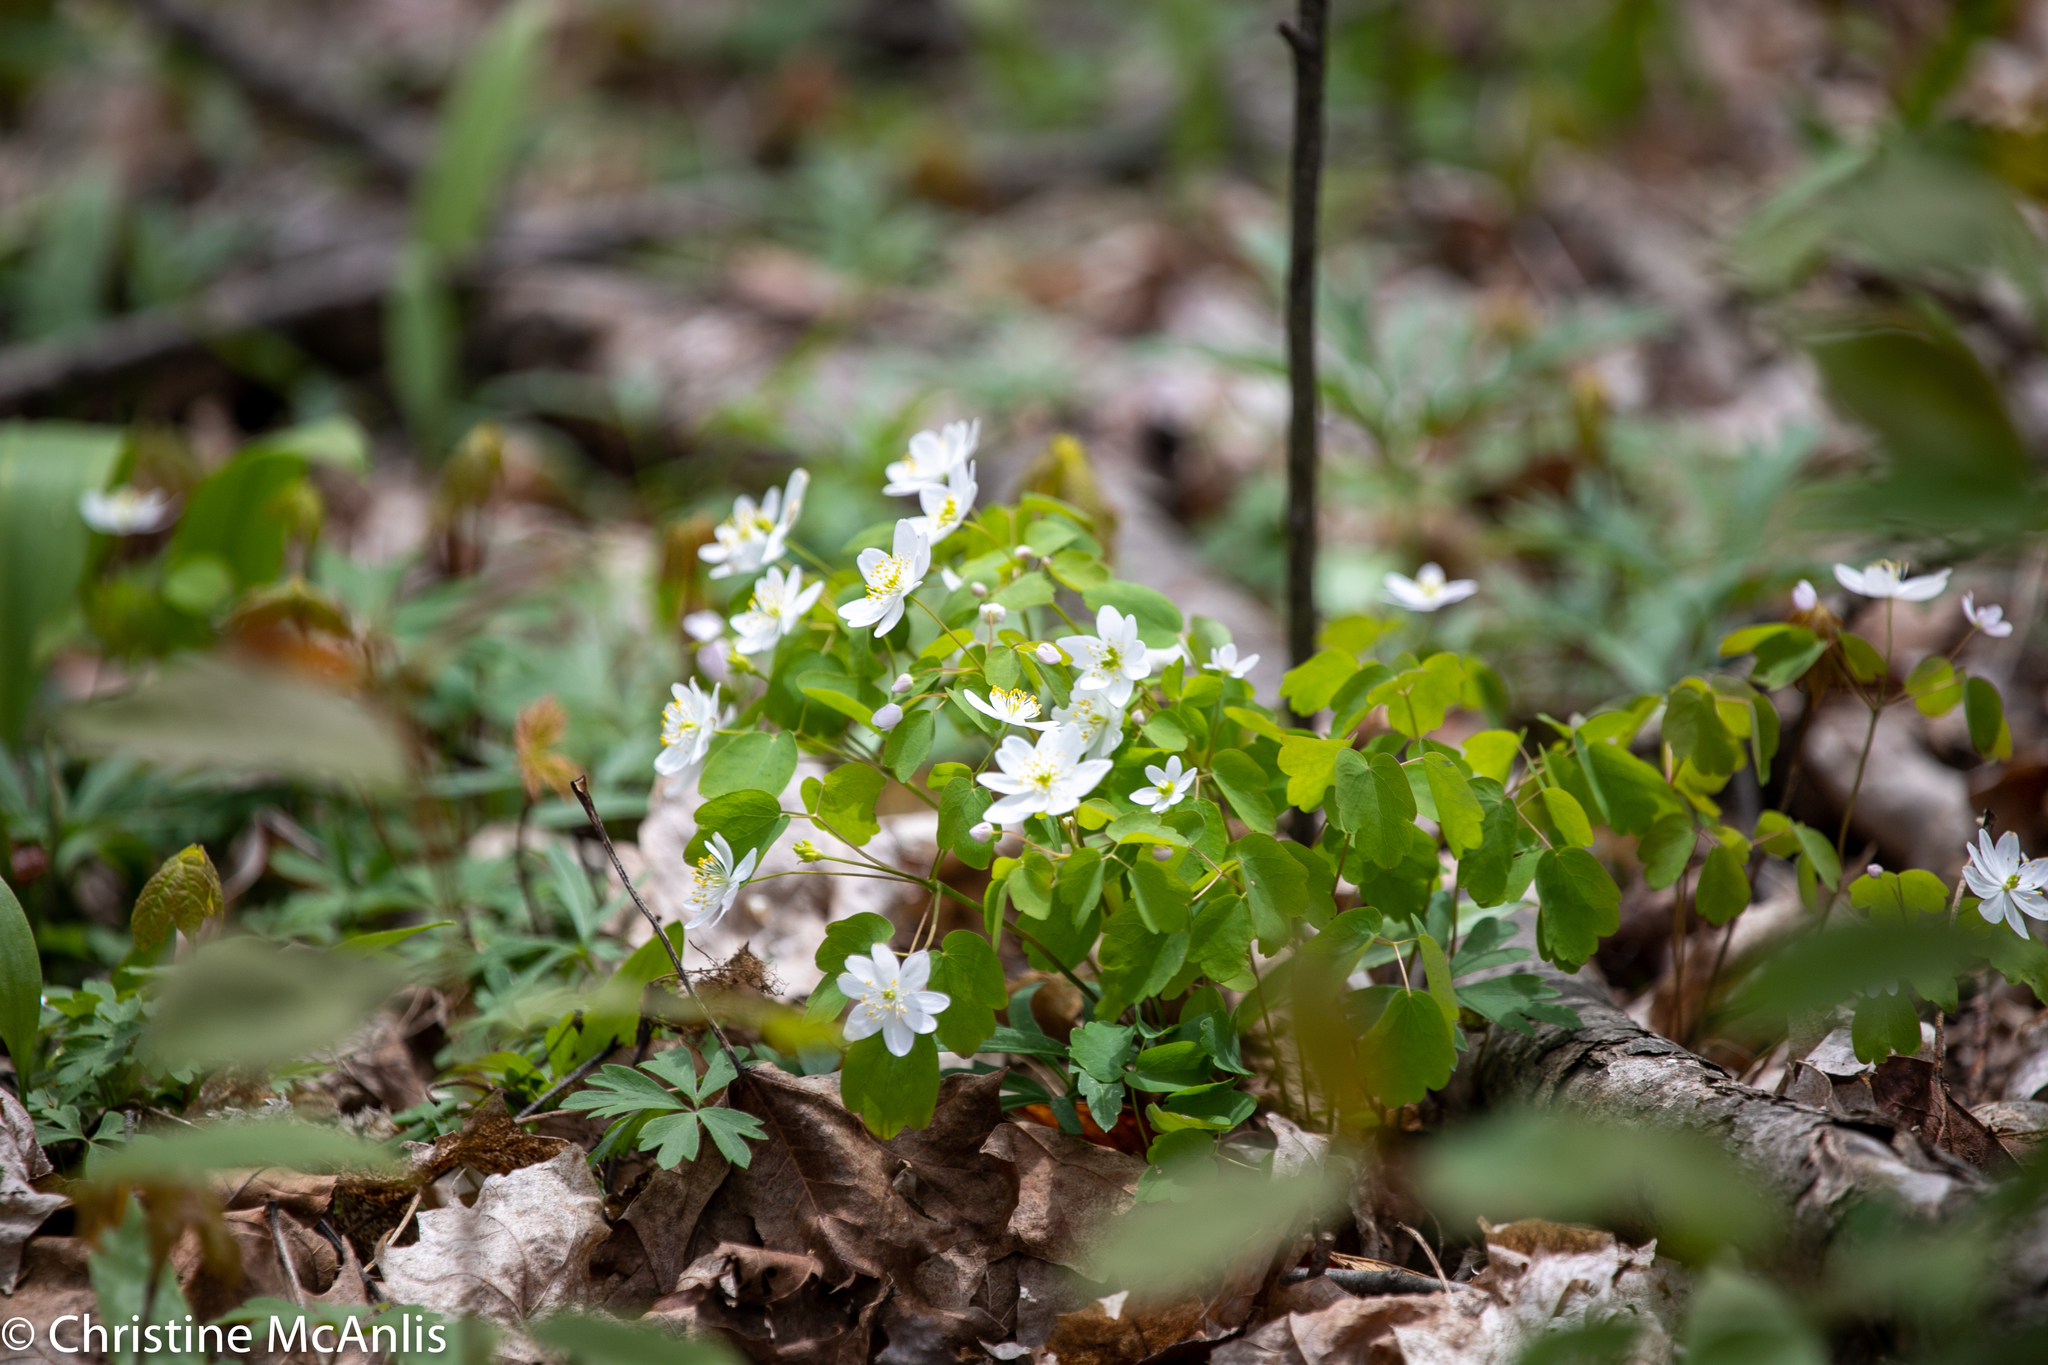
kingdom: Plantae
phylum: Tracheophyta
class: Magnoliopsida
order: Ranunculales
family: Ranunculaceae
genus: Thalictrum
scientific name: Thalictrum thalictroides
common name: Rue-anemone
